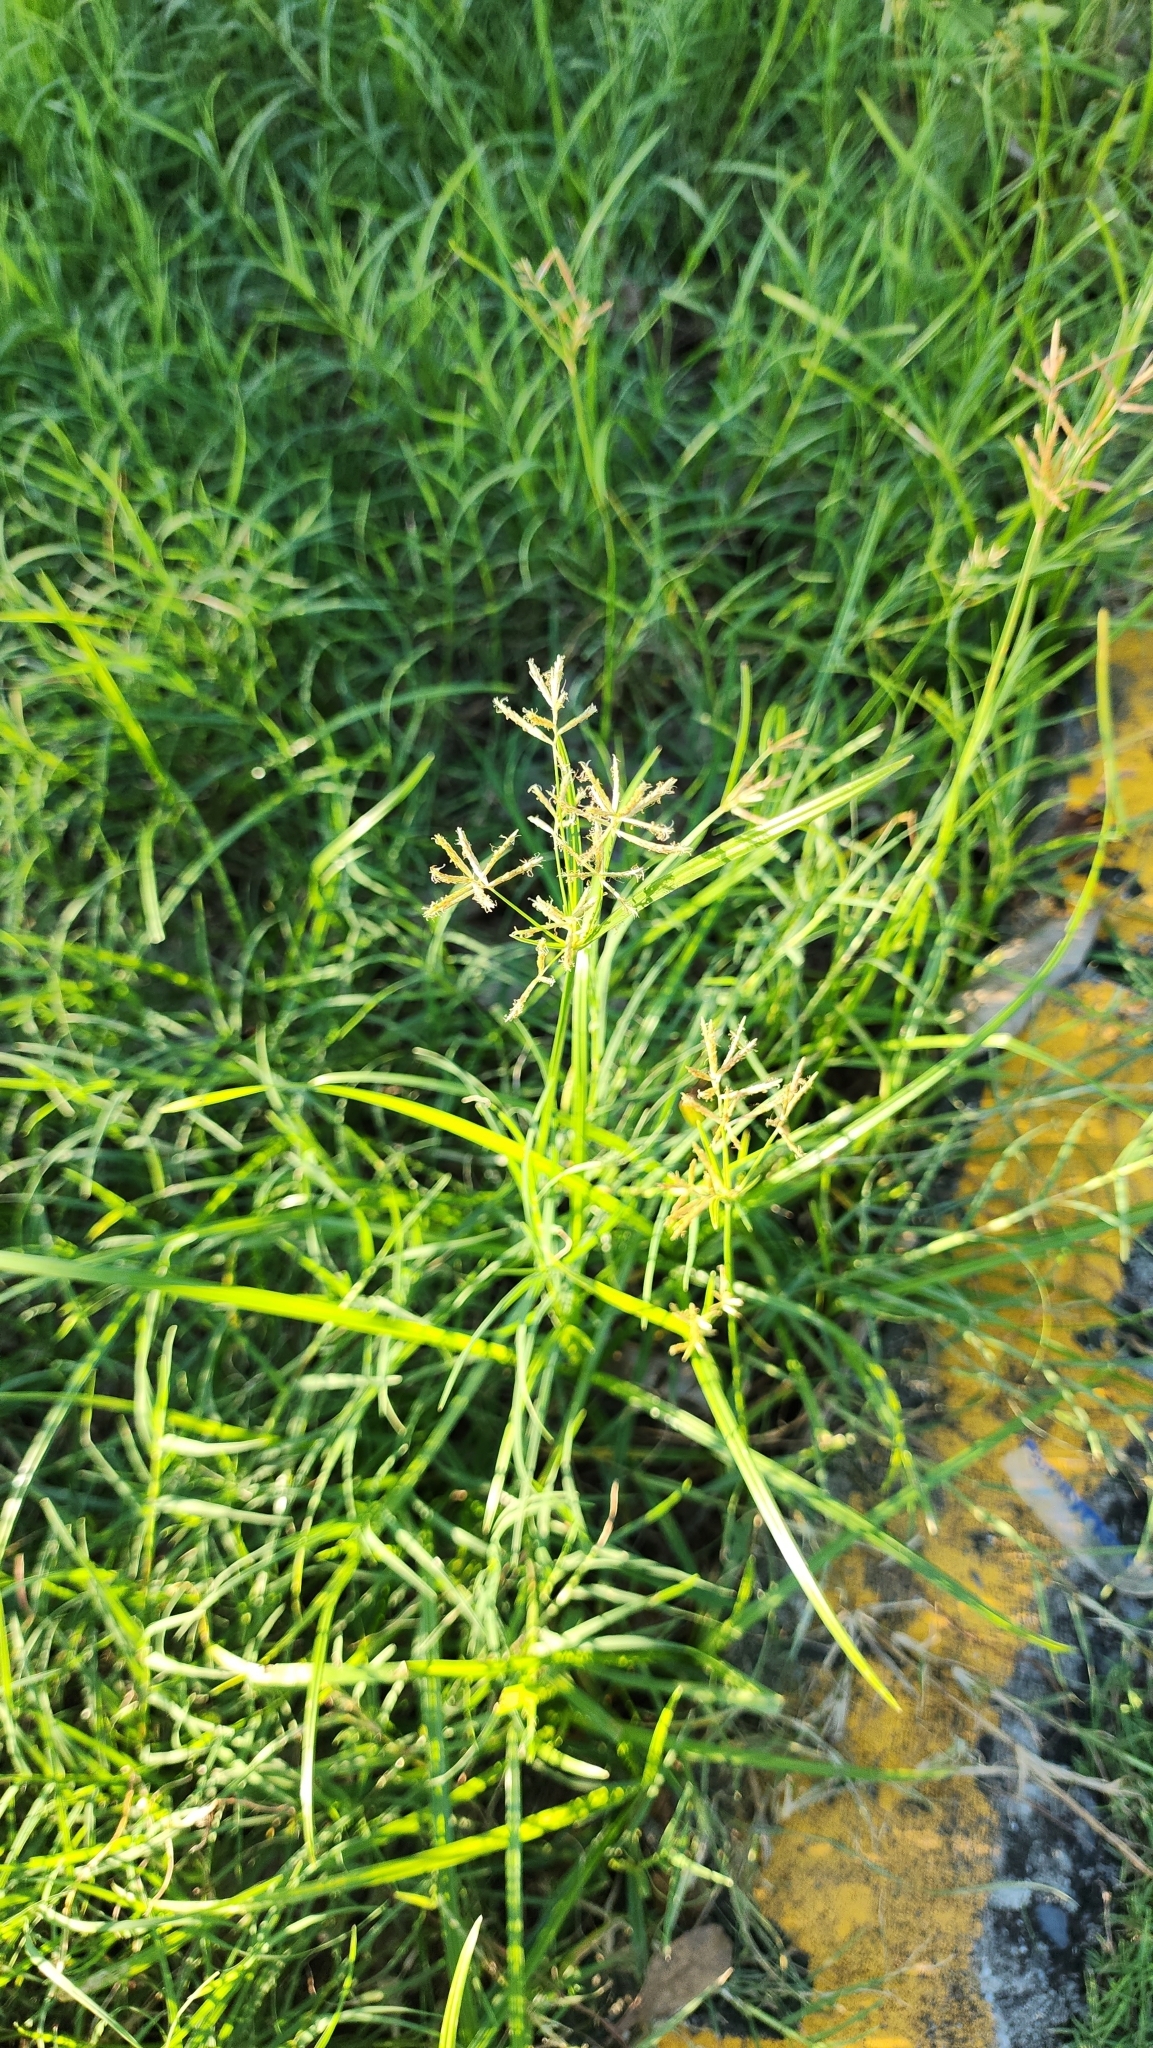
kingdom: Plantae
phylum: Tracheophyta
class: Liliopsida
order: Poales
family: Cyperaceae
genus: Cyperus
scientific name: Cyperus rotundus
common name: Nutgrass
